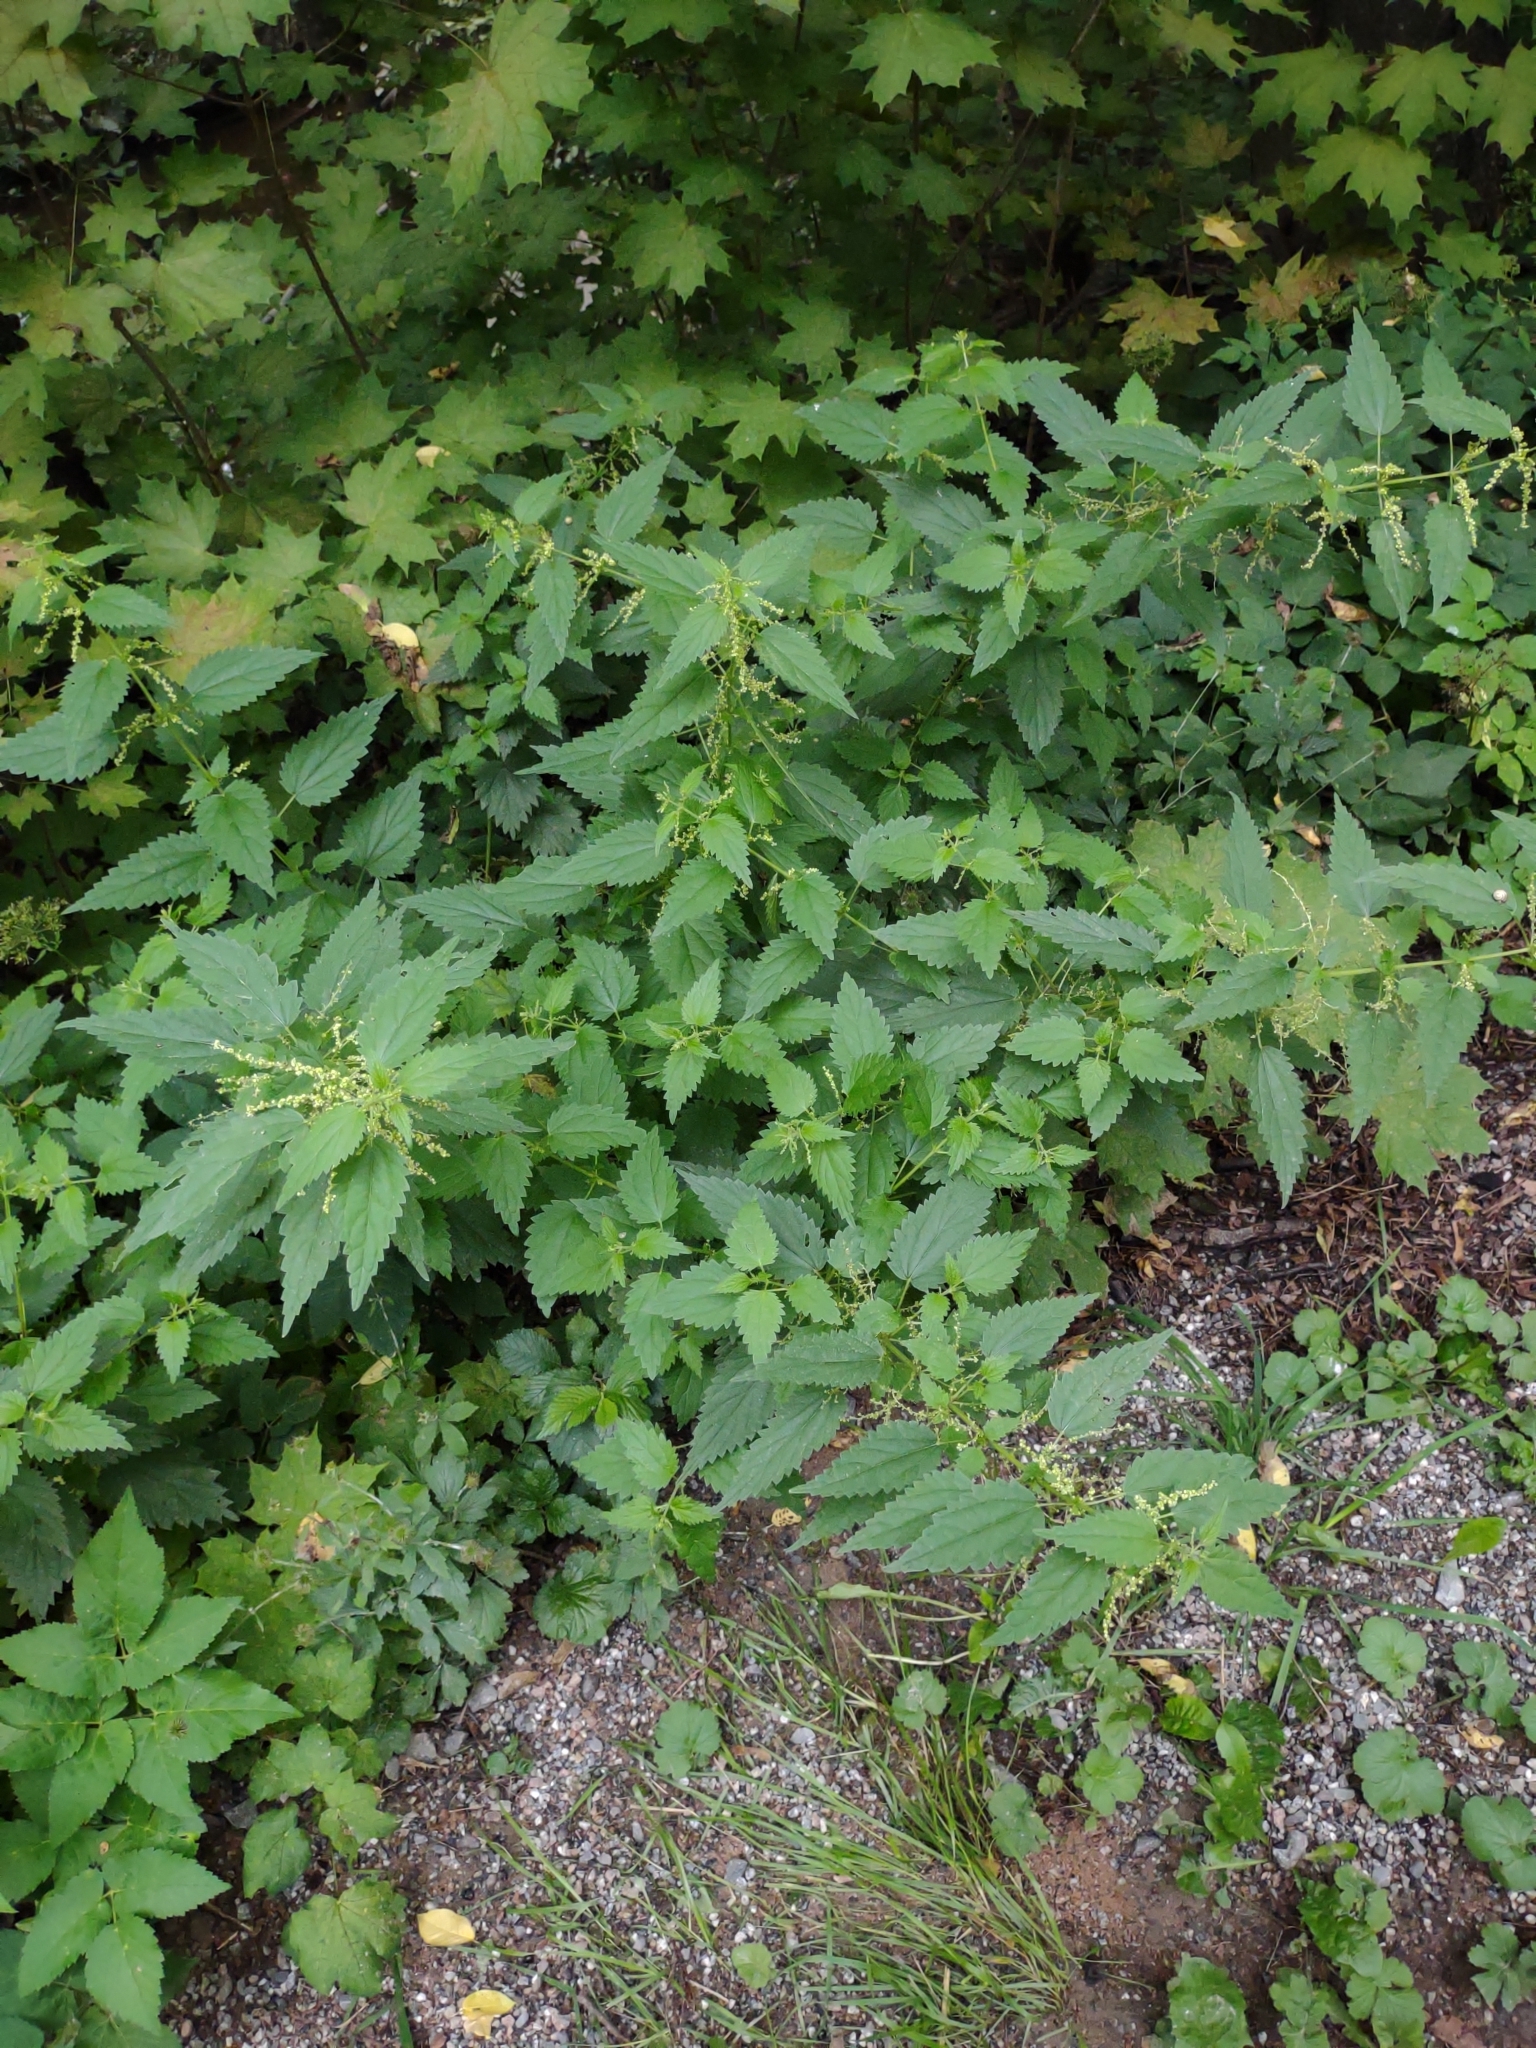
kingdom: Plantae
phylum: Tracheophyta
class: Magnoliopsida
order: Rosales
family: Urticaceae
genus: Urtica
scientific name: Urtica dioica
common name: Common nettle
